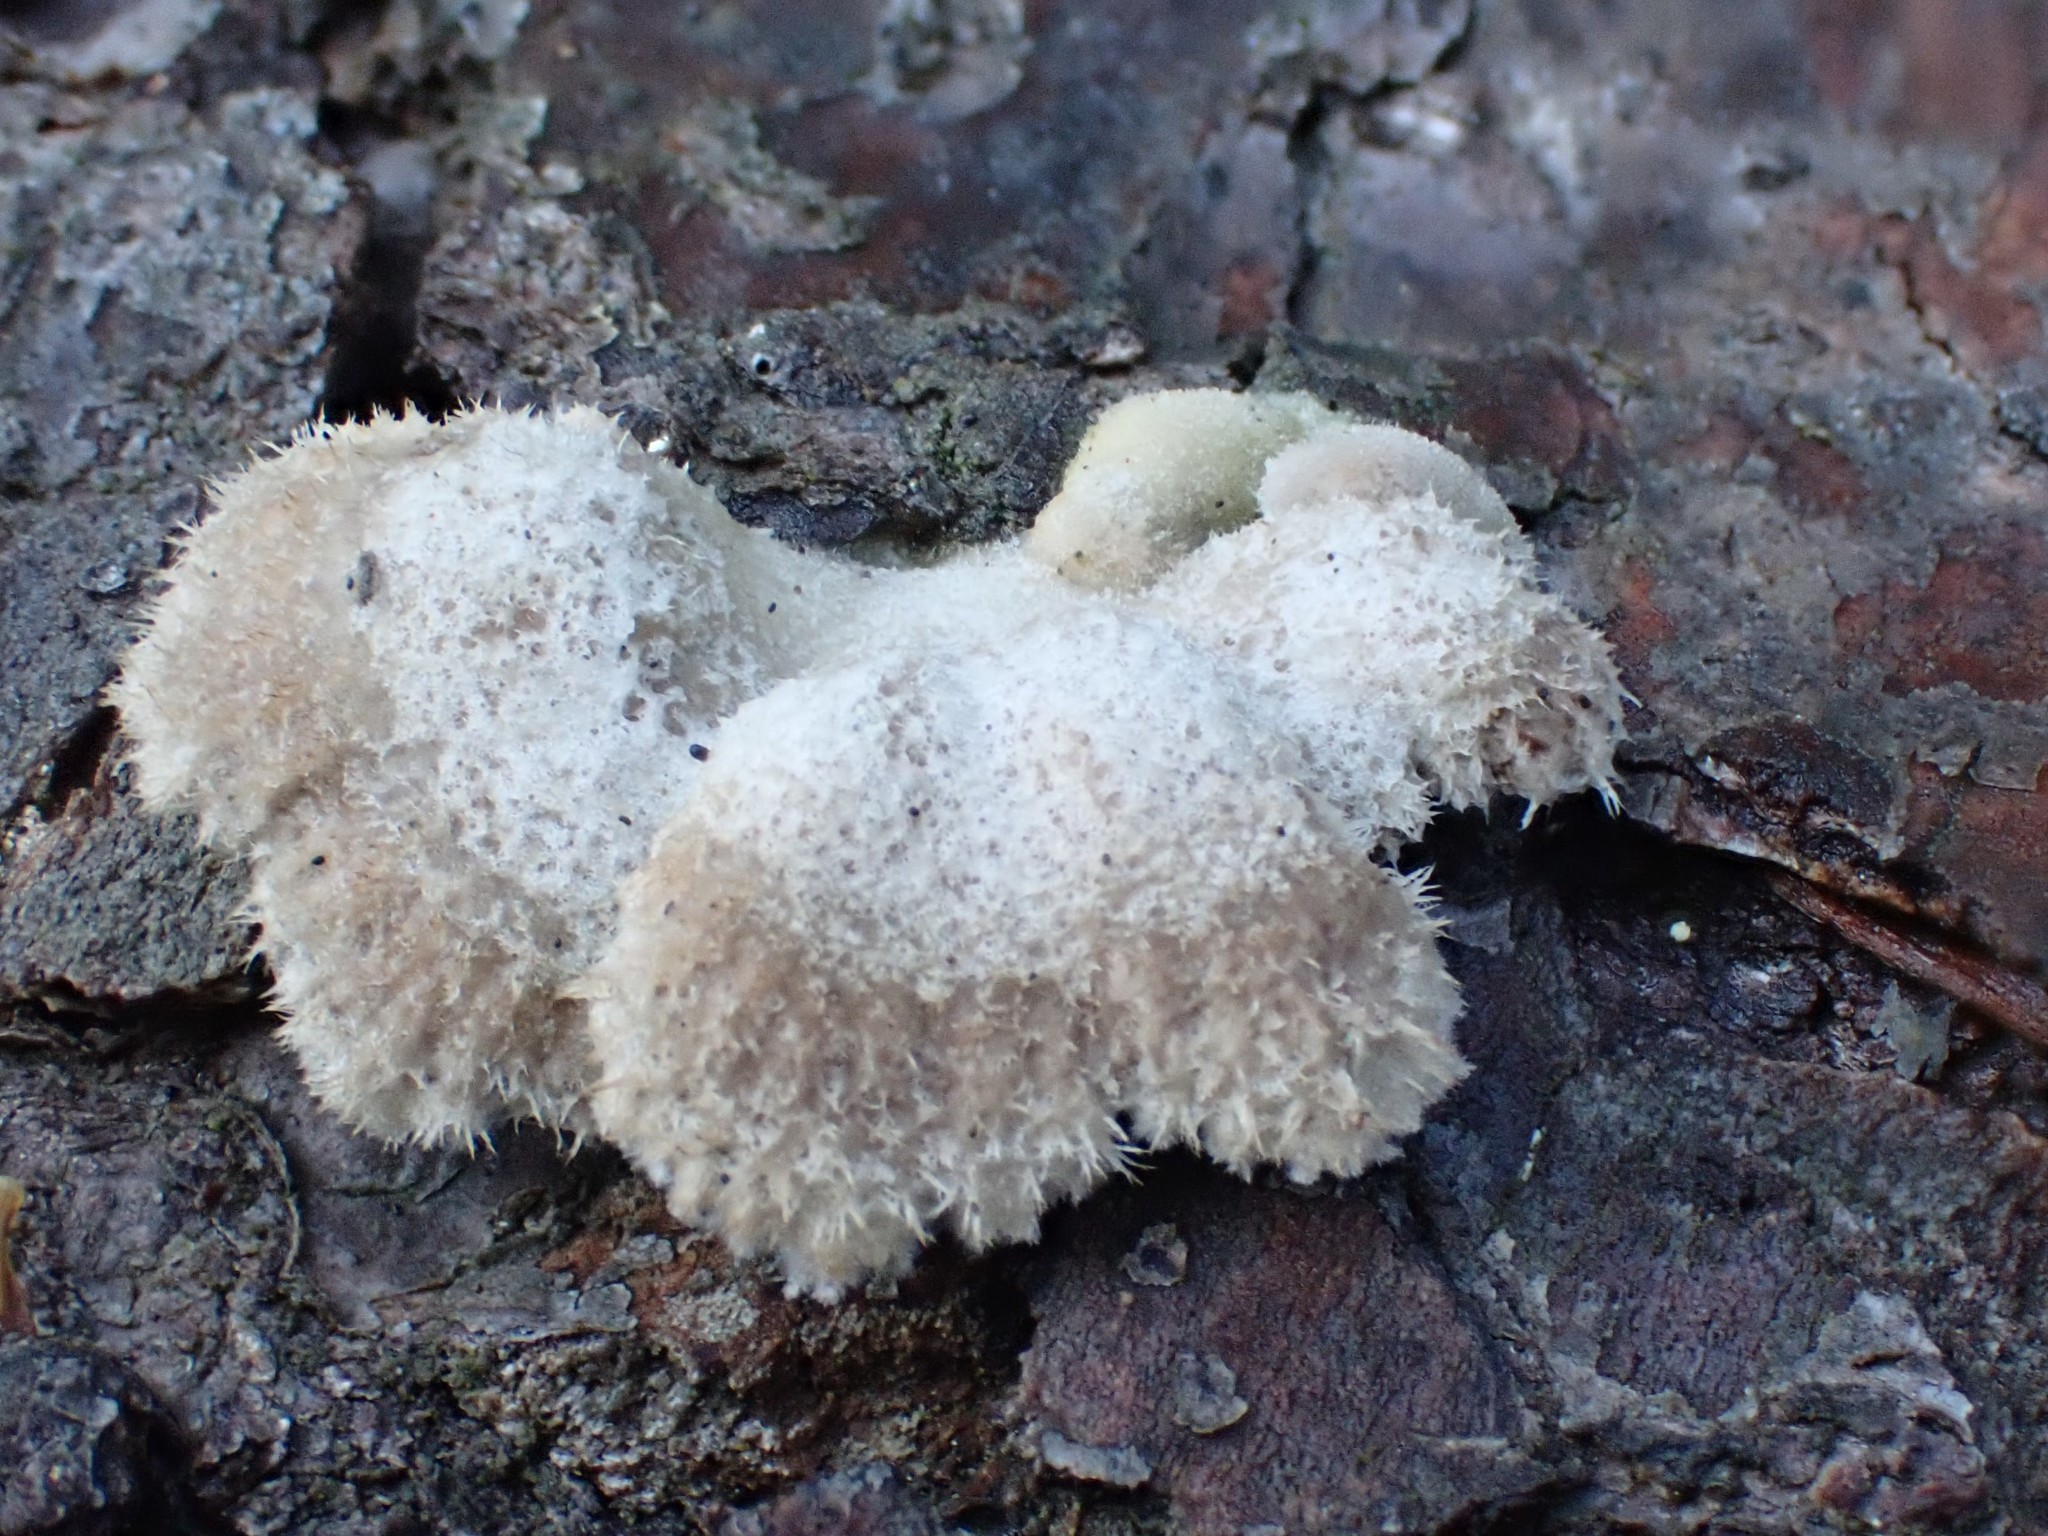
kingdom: Fungi
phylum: Basidiomycota
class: Agaricomycetes
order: Agaricales
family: Schizophyllaceae
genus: Schizophyllum
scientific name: Schizophyllum commune
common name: Common porecrust
